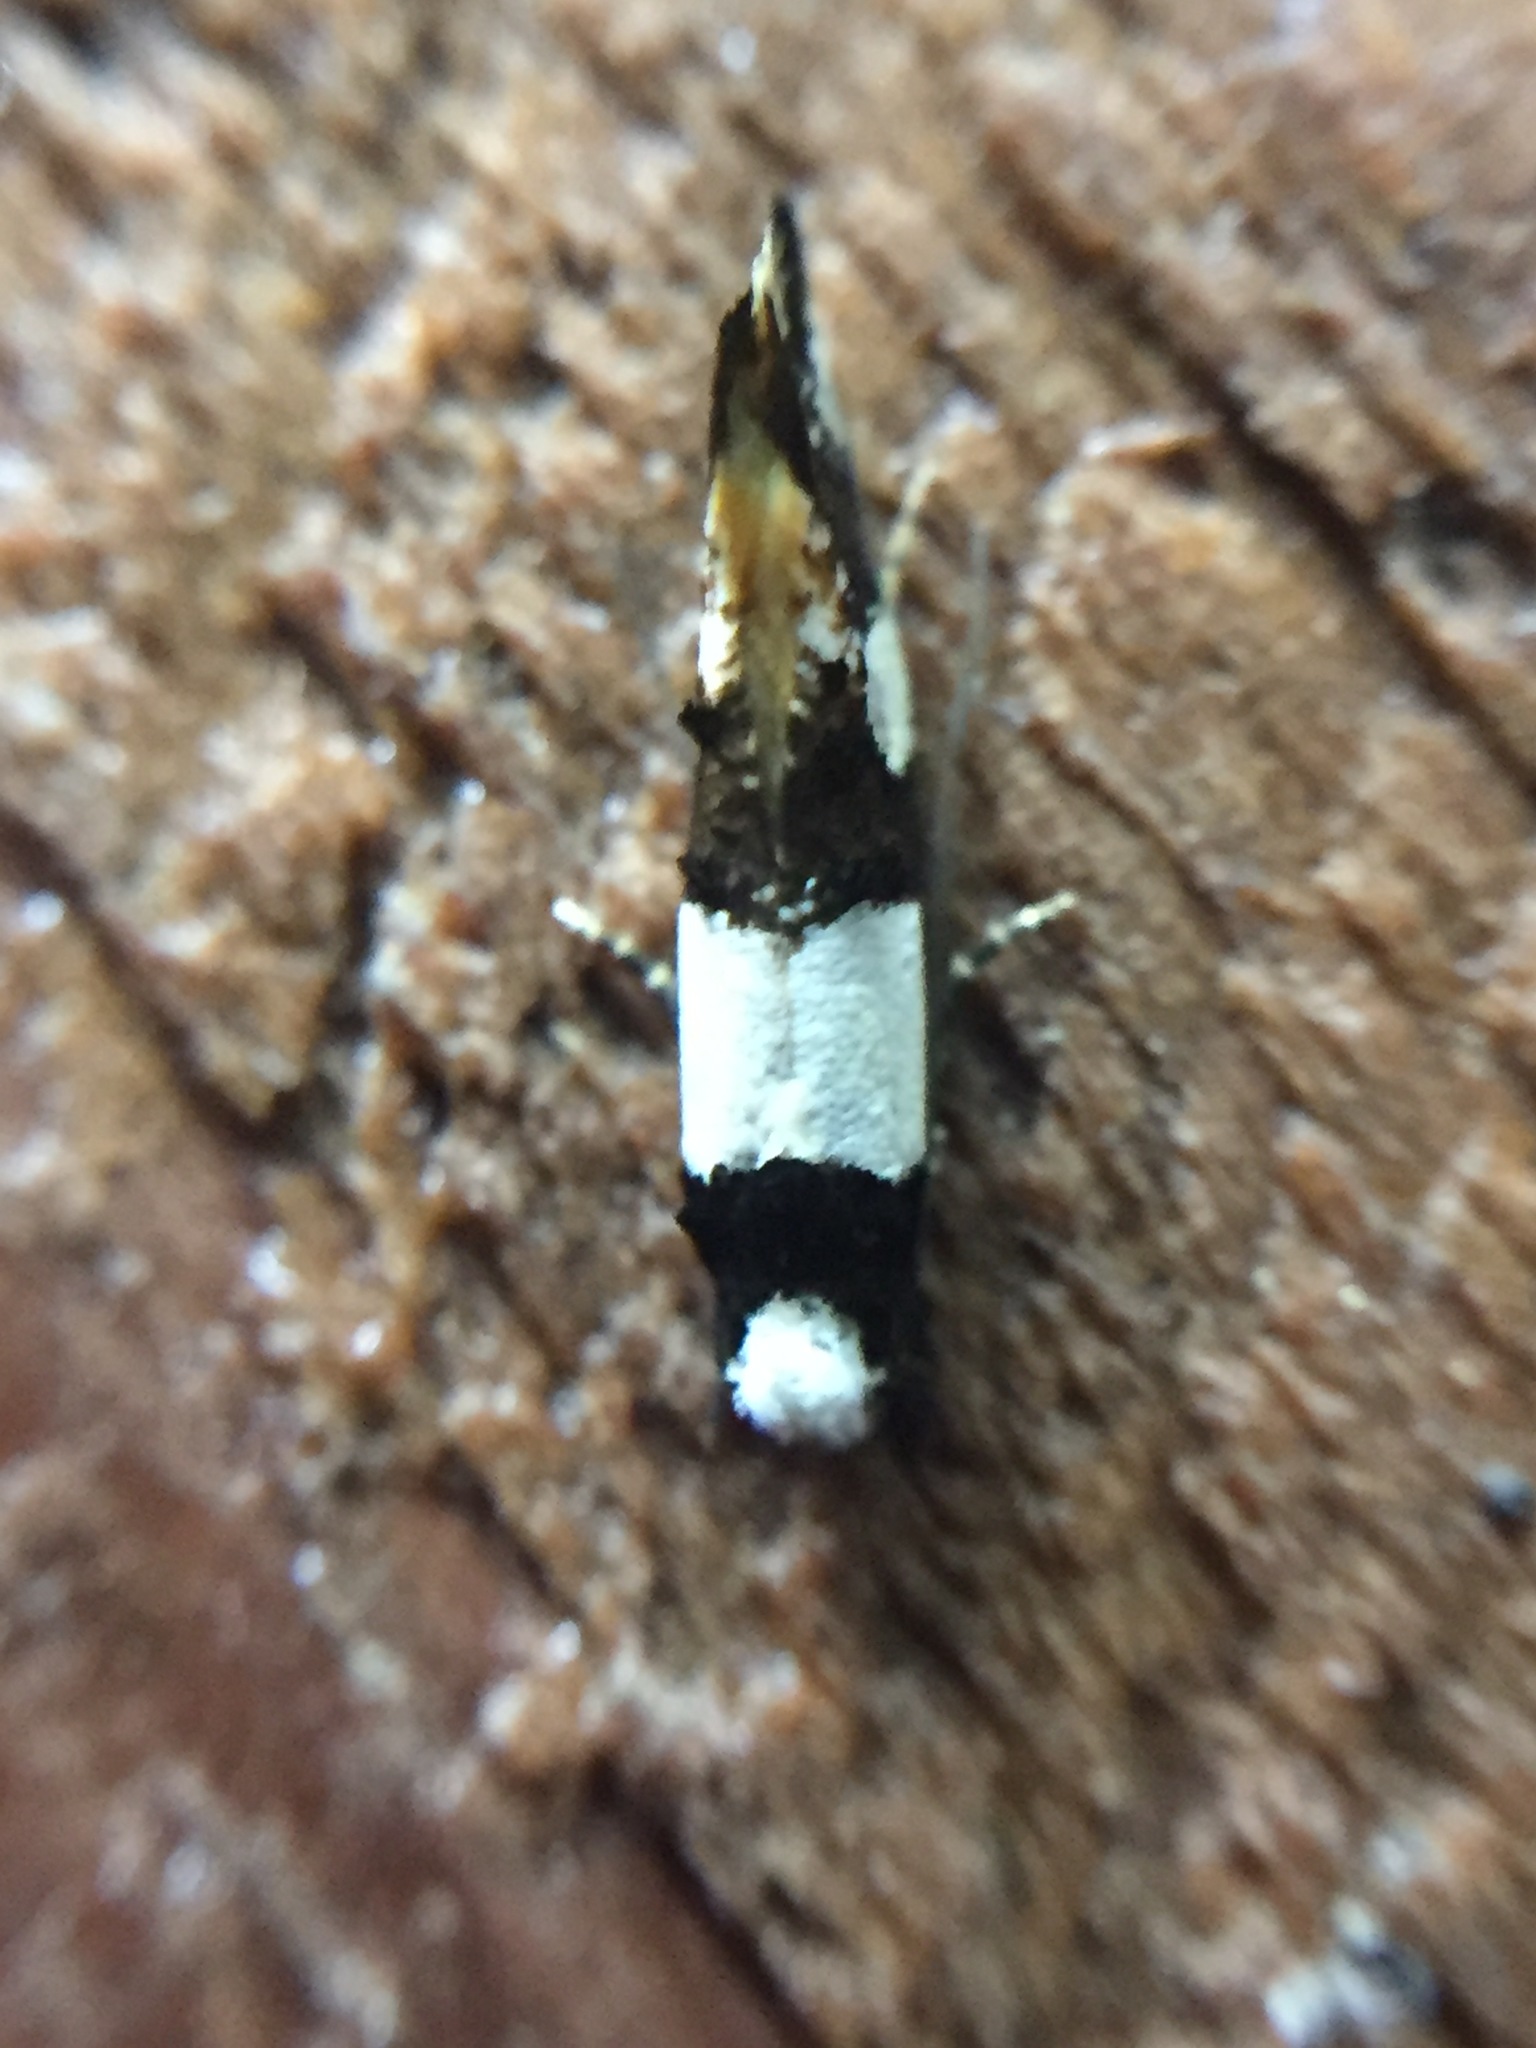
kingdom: Animalia
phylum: Arthropoda
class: Insecta
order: Lepidoptera
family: Tineidae
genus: Monopis
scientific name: Monopis icterogastra
